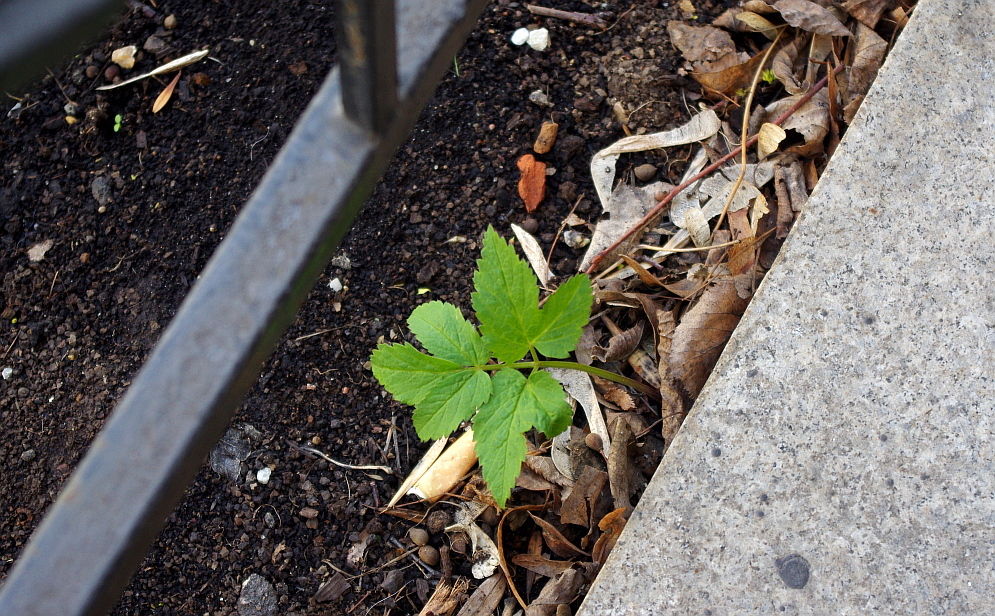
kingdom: Plantae
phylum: Tracheophyta
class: Magnoliopsida
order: Apiales
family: Apiaceae
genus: Aegopodium
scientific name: Aegopodium podagraria
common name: Ground-elder
